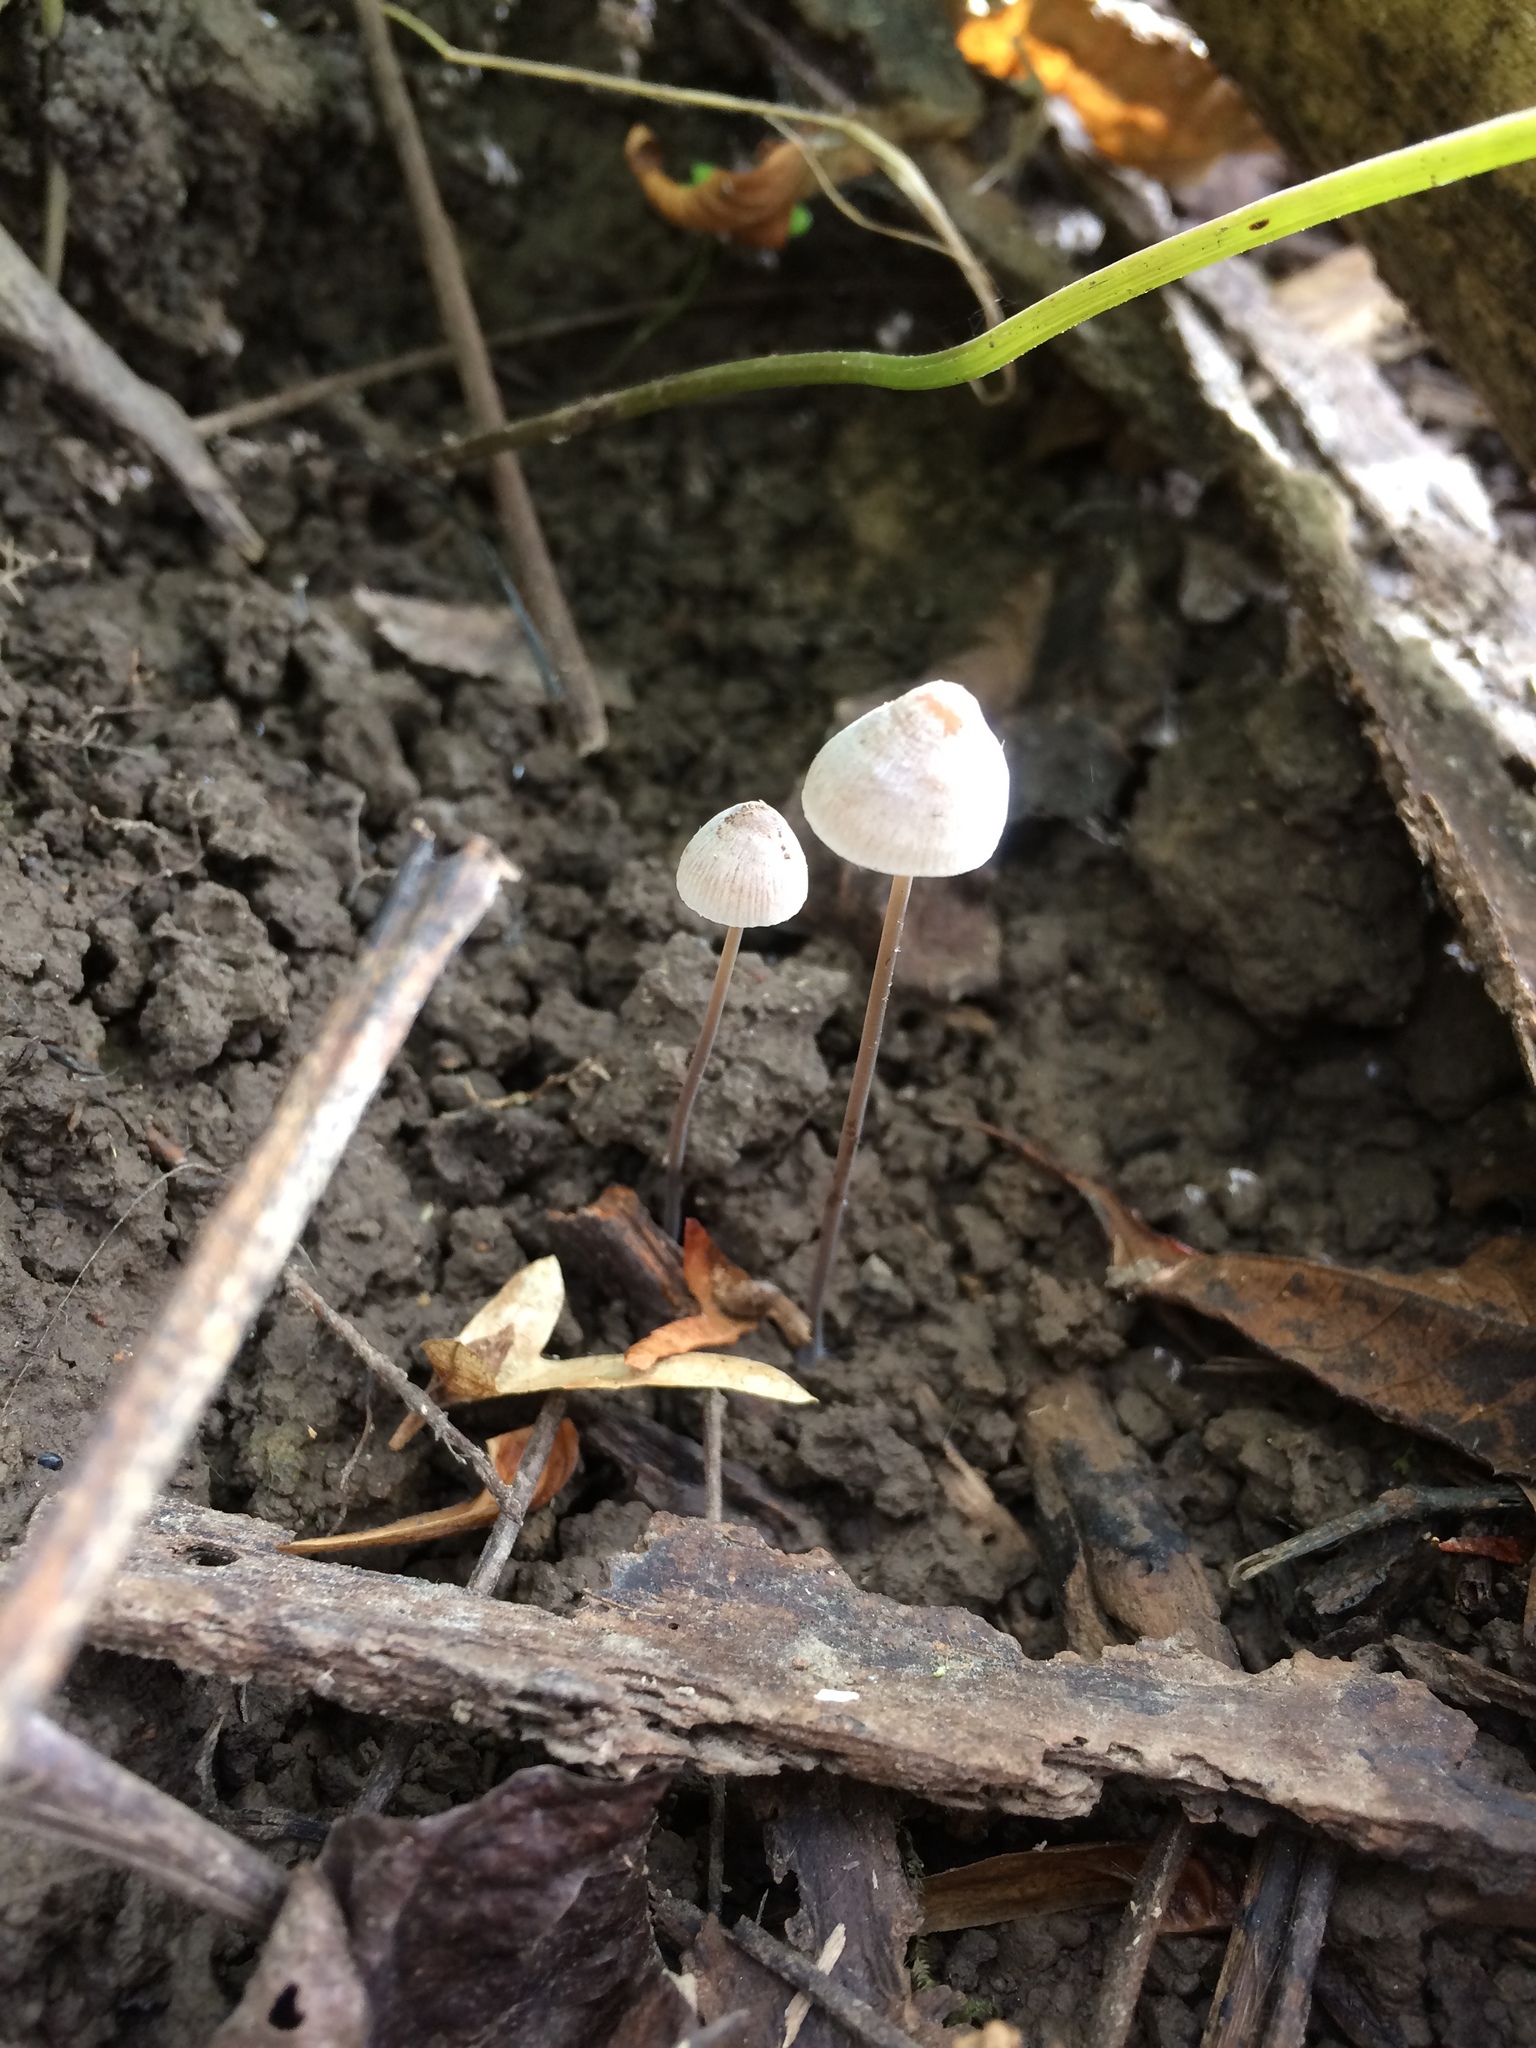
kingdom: Fungi
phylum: Basidiomycota
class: Agaricomycetes
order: Agaricales
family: Mycenaceae
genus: Mycena
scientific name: Mycena filopes
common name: Iodine bonnet
